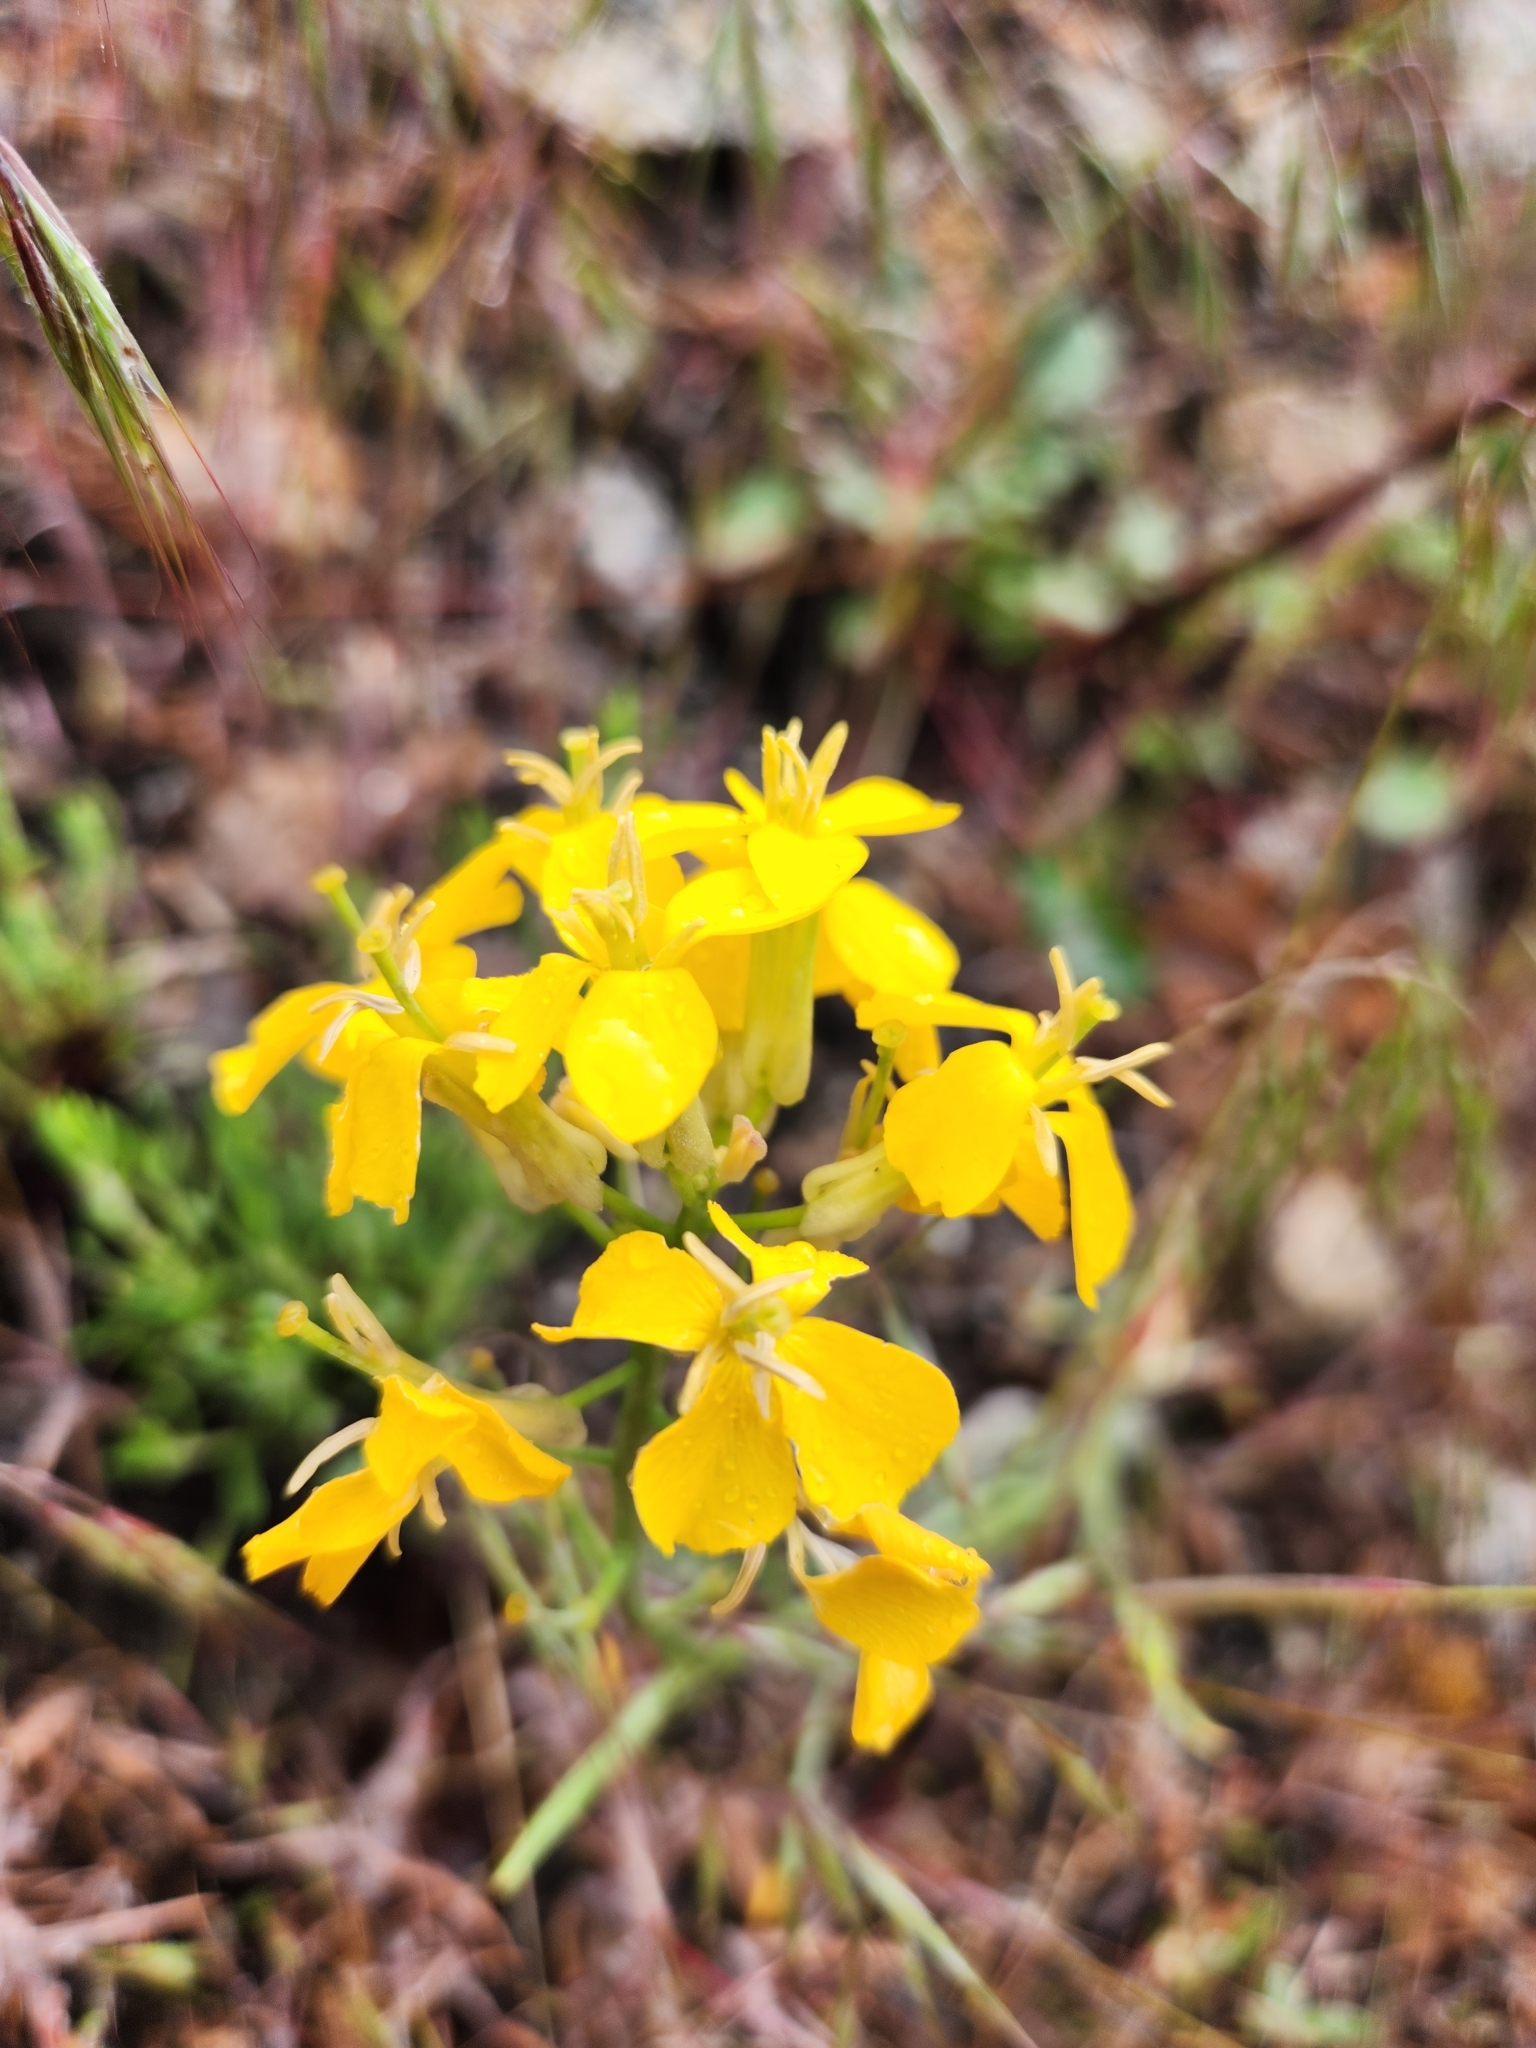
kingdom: Plantae
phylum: Tracheophyta
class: Magnoliopsida
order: Brassicales
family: Brassicaceae
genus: Erysimum
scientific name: Erysimum capitatum
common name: Western wallflower
